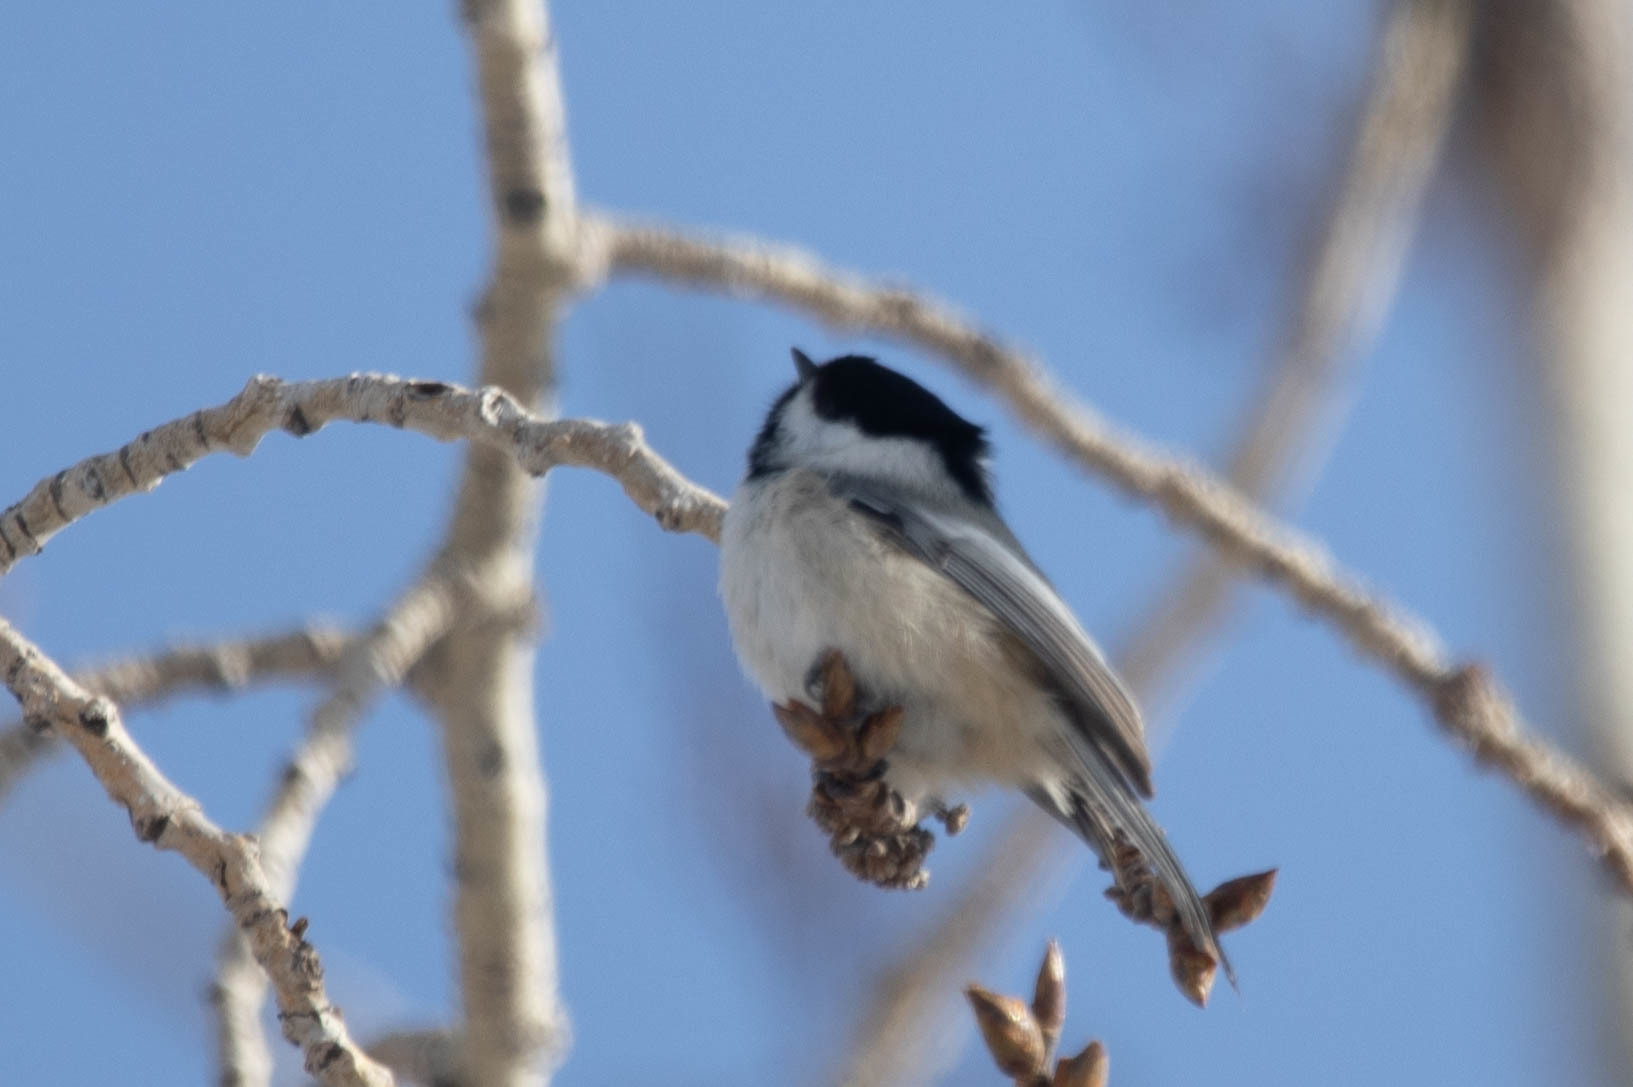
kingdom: Animalia
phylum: Chordata
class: Aves
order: Passeriformes
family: Paridae
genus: Poecile
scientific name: Poecile atricapillus
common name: Black-capped chickadee
